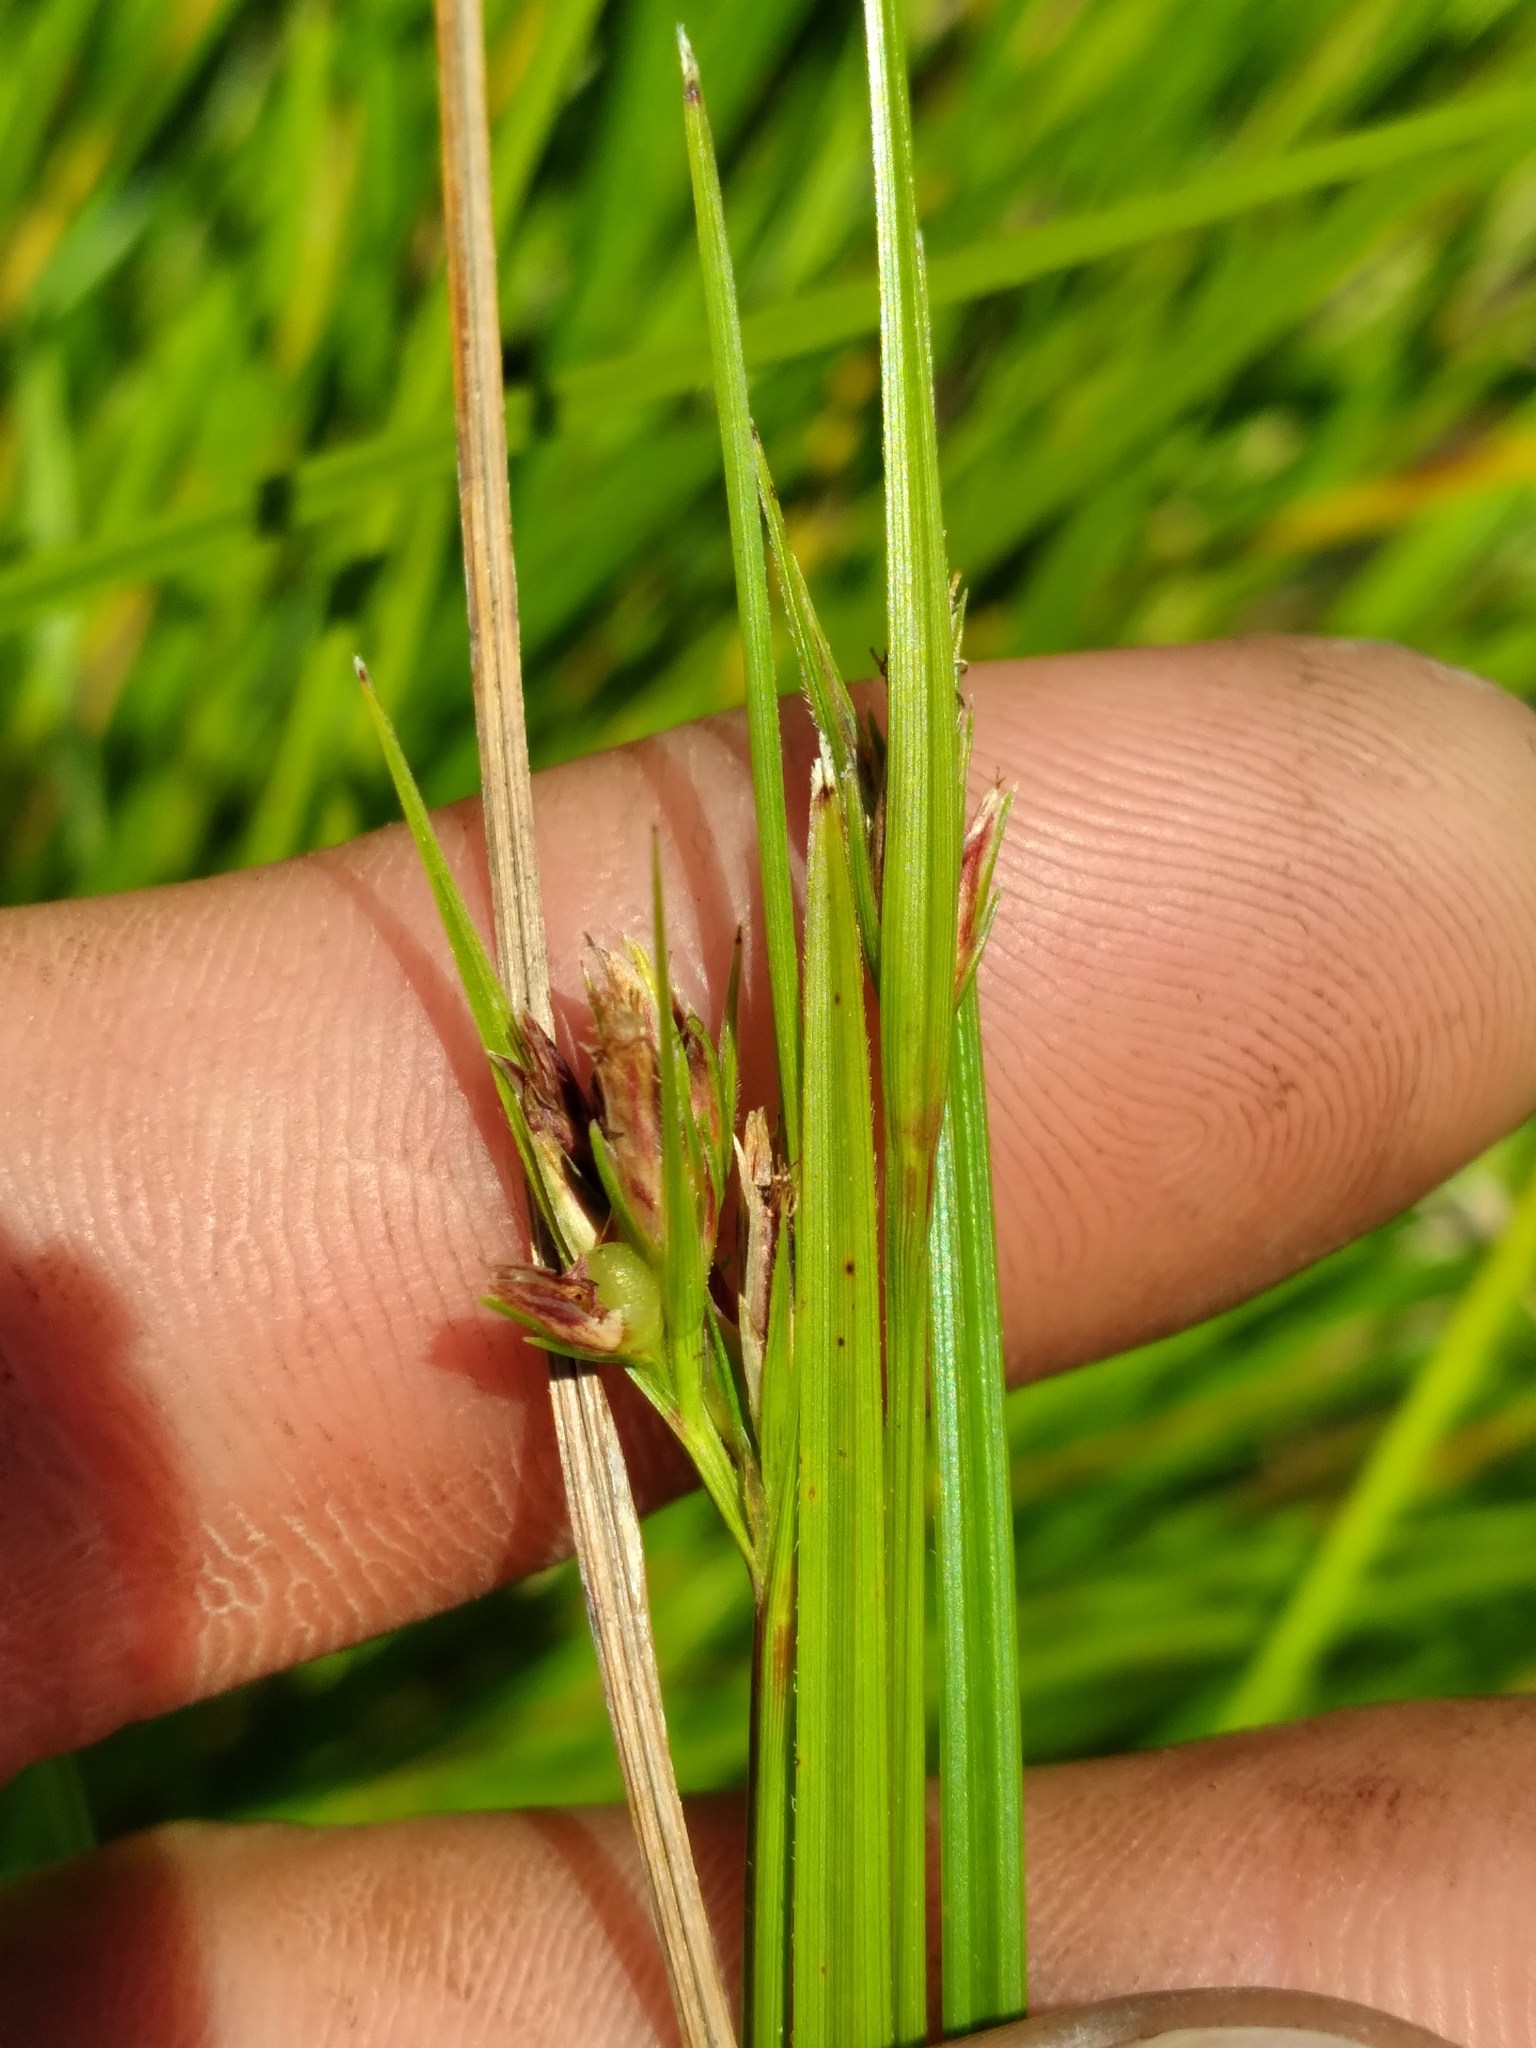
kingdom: Plantae
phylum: Tracheophyta
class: Liliopsida
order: Poales
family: Cyperaceae
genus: Scleria
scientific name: Scleria ciliata
